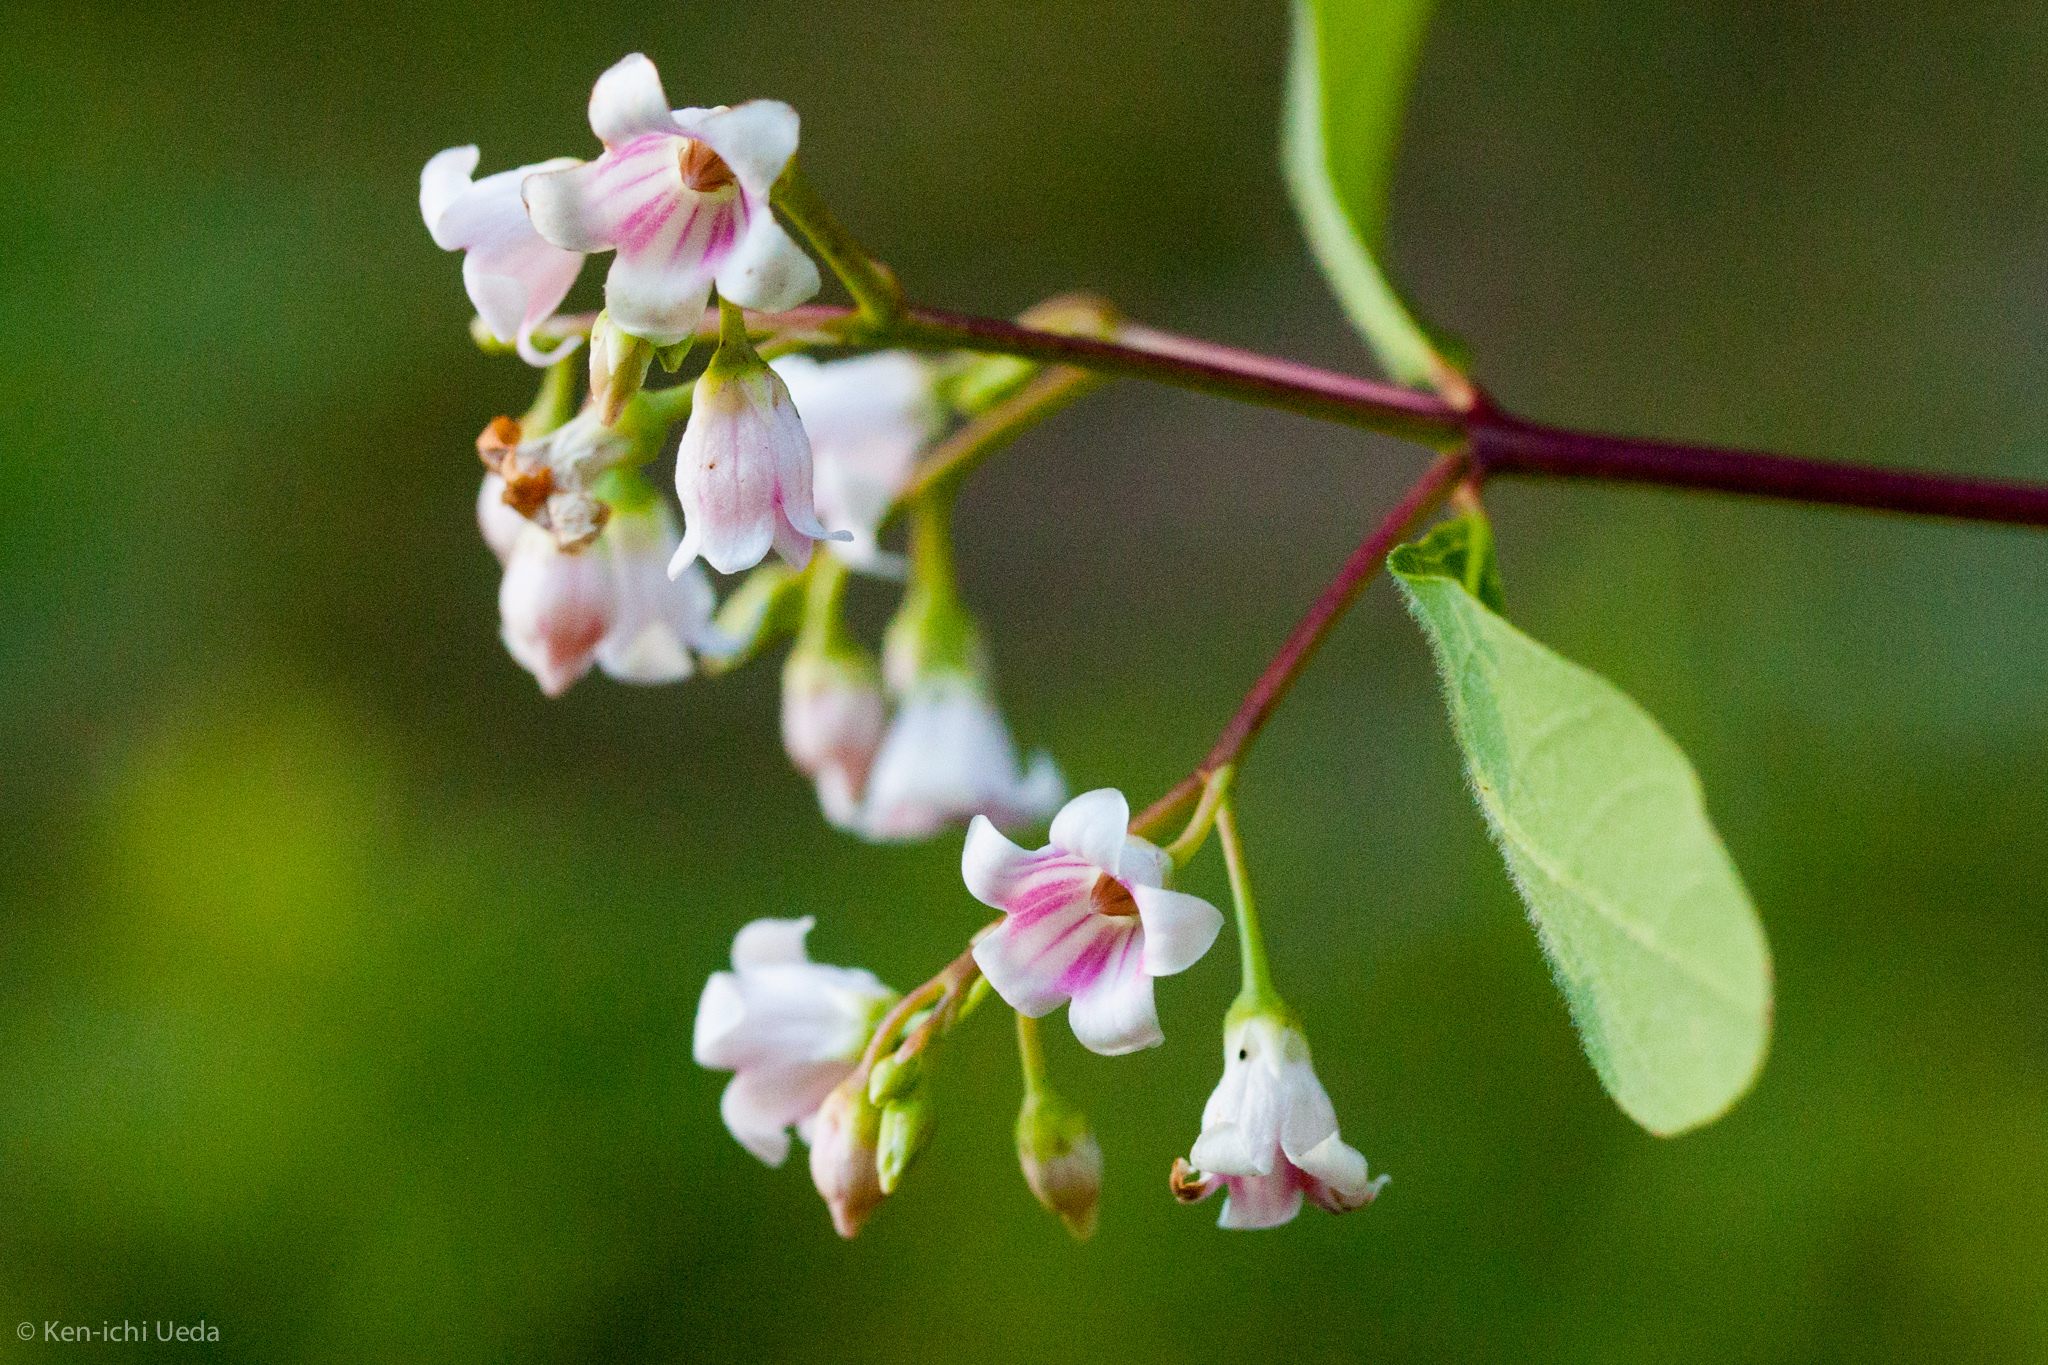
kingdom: Plantae
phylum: Tracheophyta
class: Magnoliopsida
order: Gentianales
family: Apocynaceae
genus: Apocynum
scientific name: Apocynum androsaemifolium
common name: Spreading dogbane
